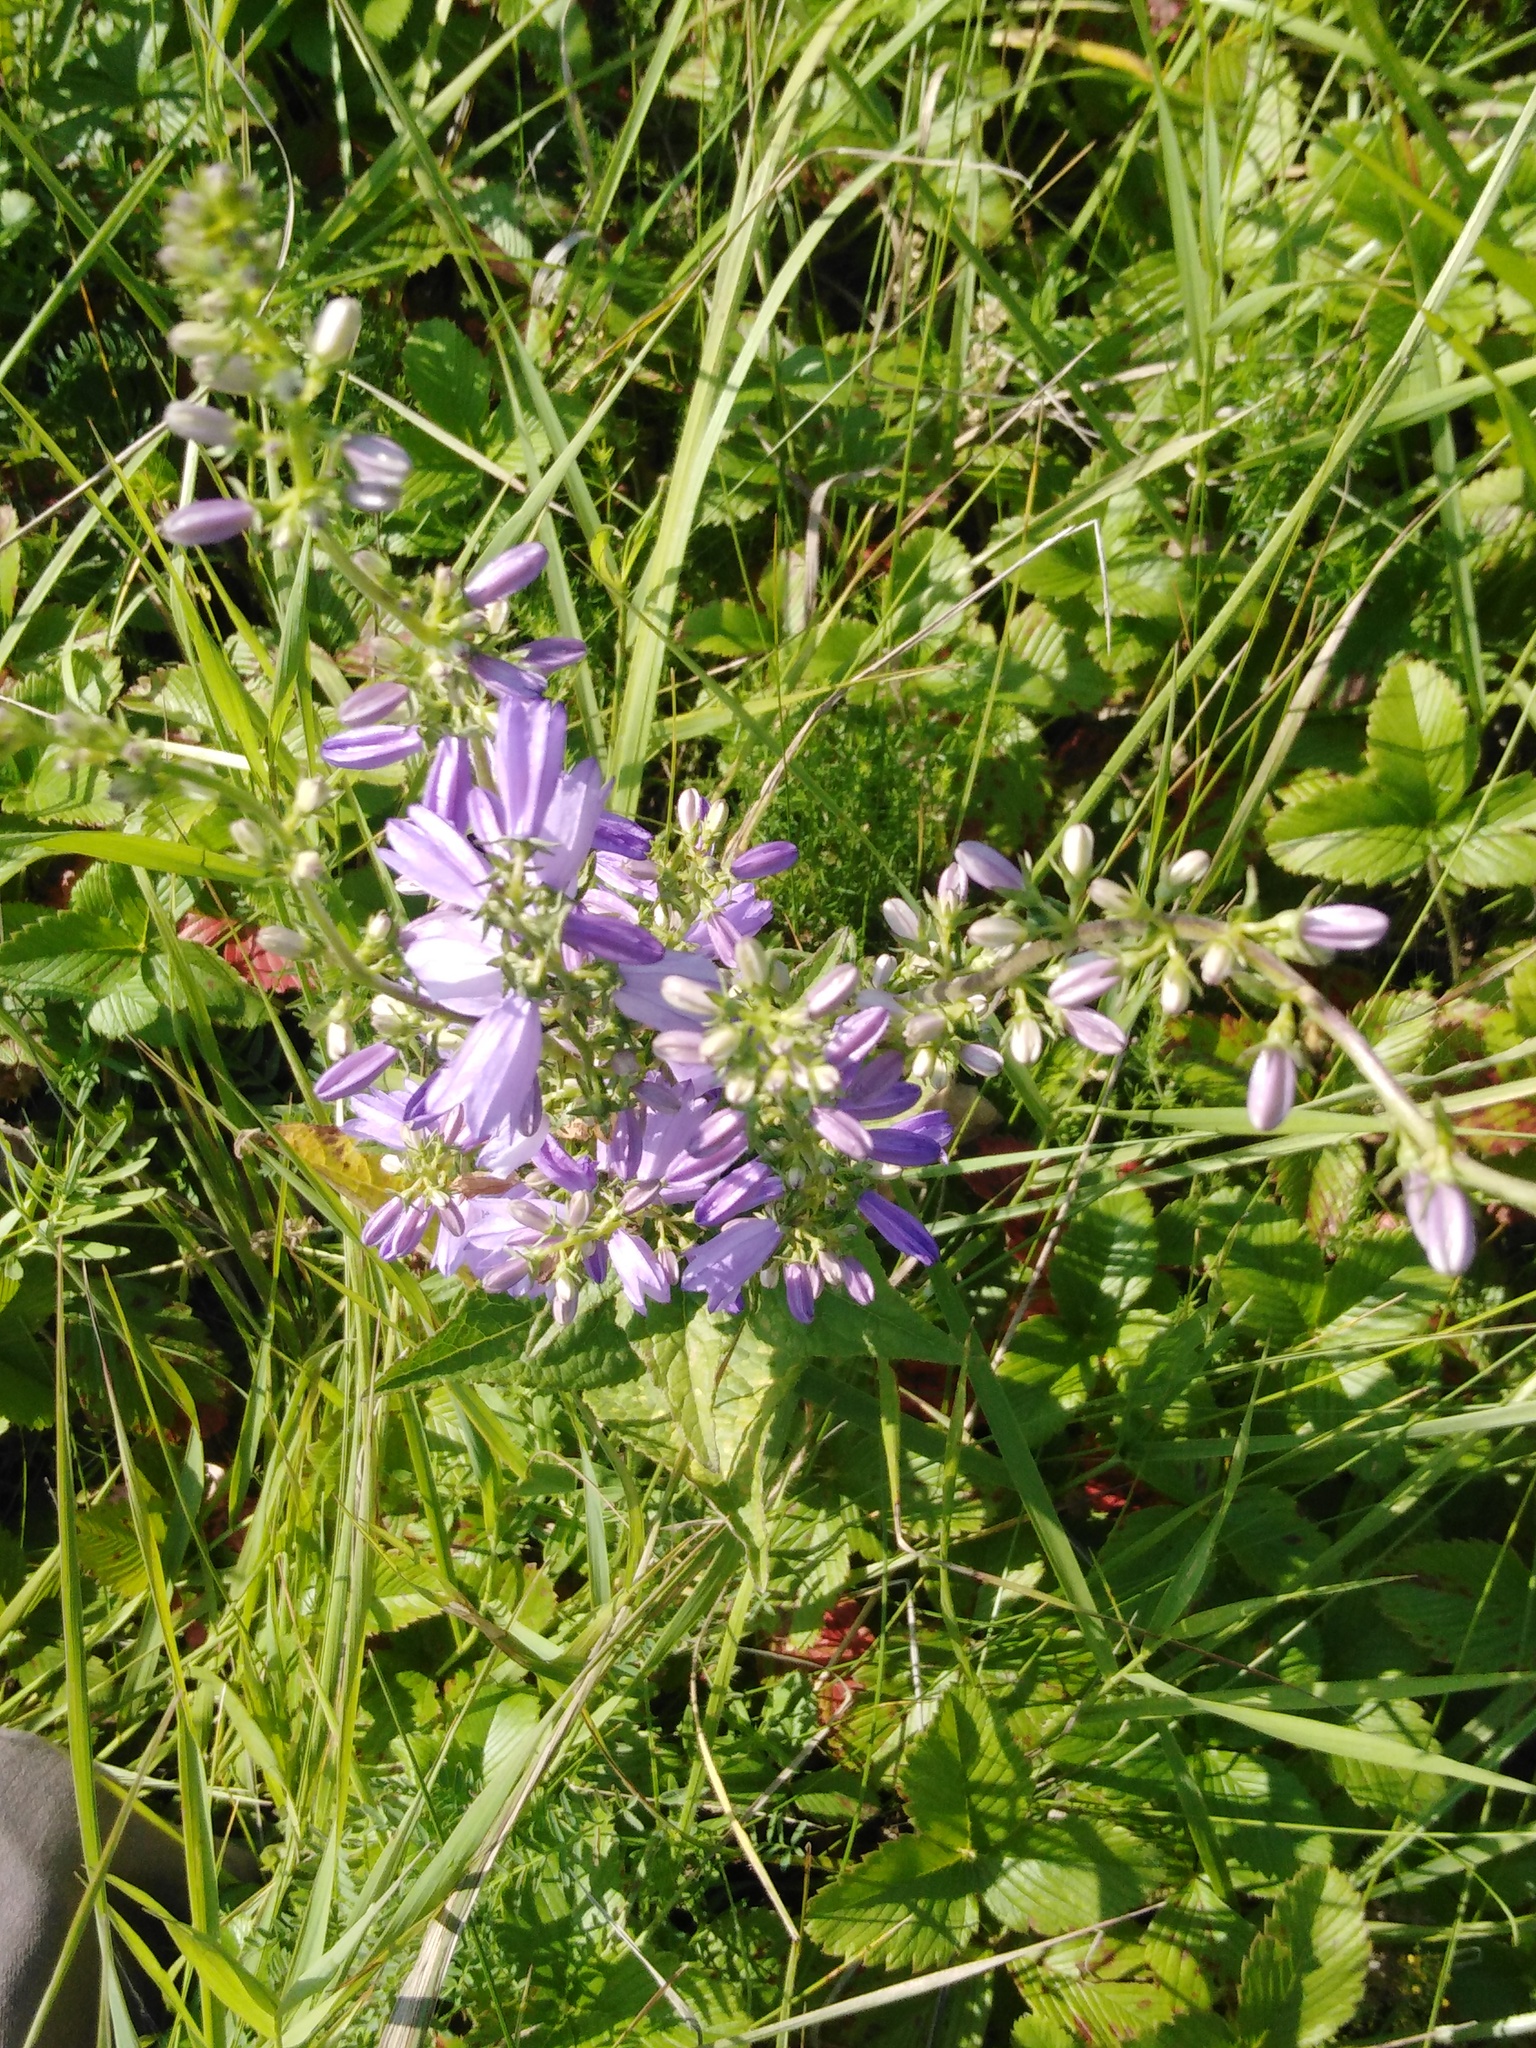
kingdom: Plantae
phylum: Tracheophyta
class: Magnoliopsida
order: Asterales
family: Campanulaceae
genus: Campanula
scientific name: Campanula bononiensis
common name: Pale bellflower
